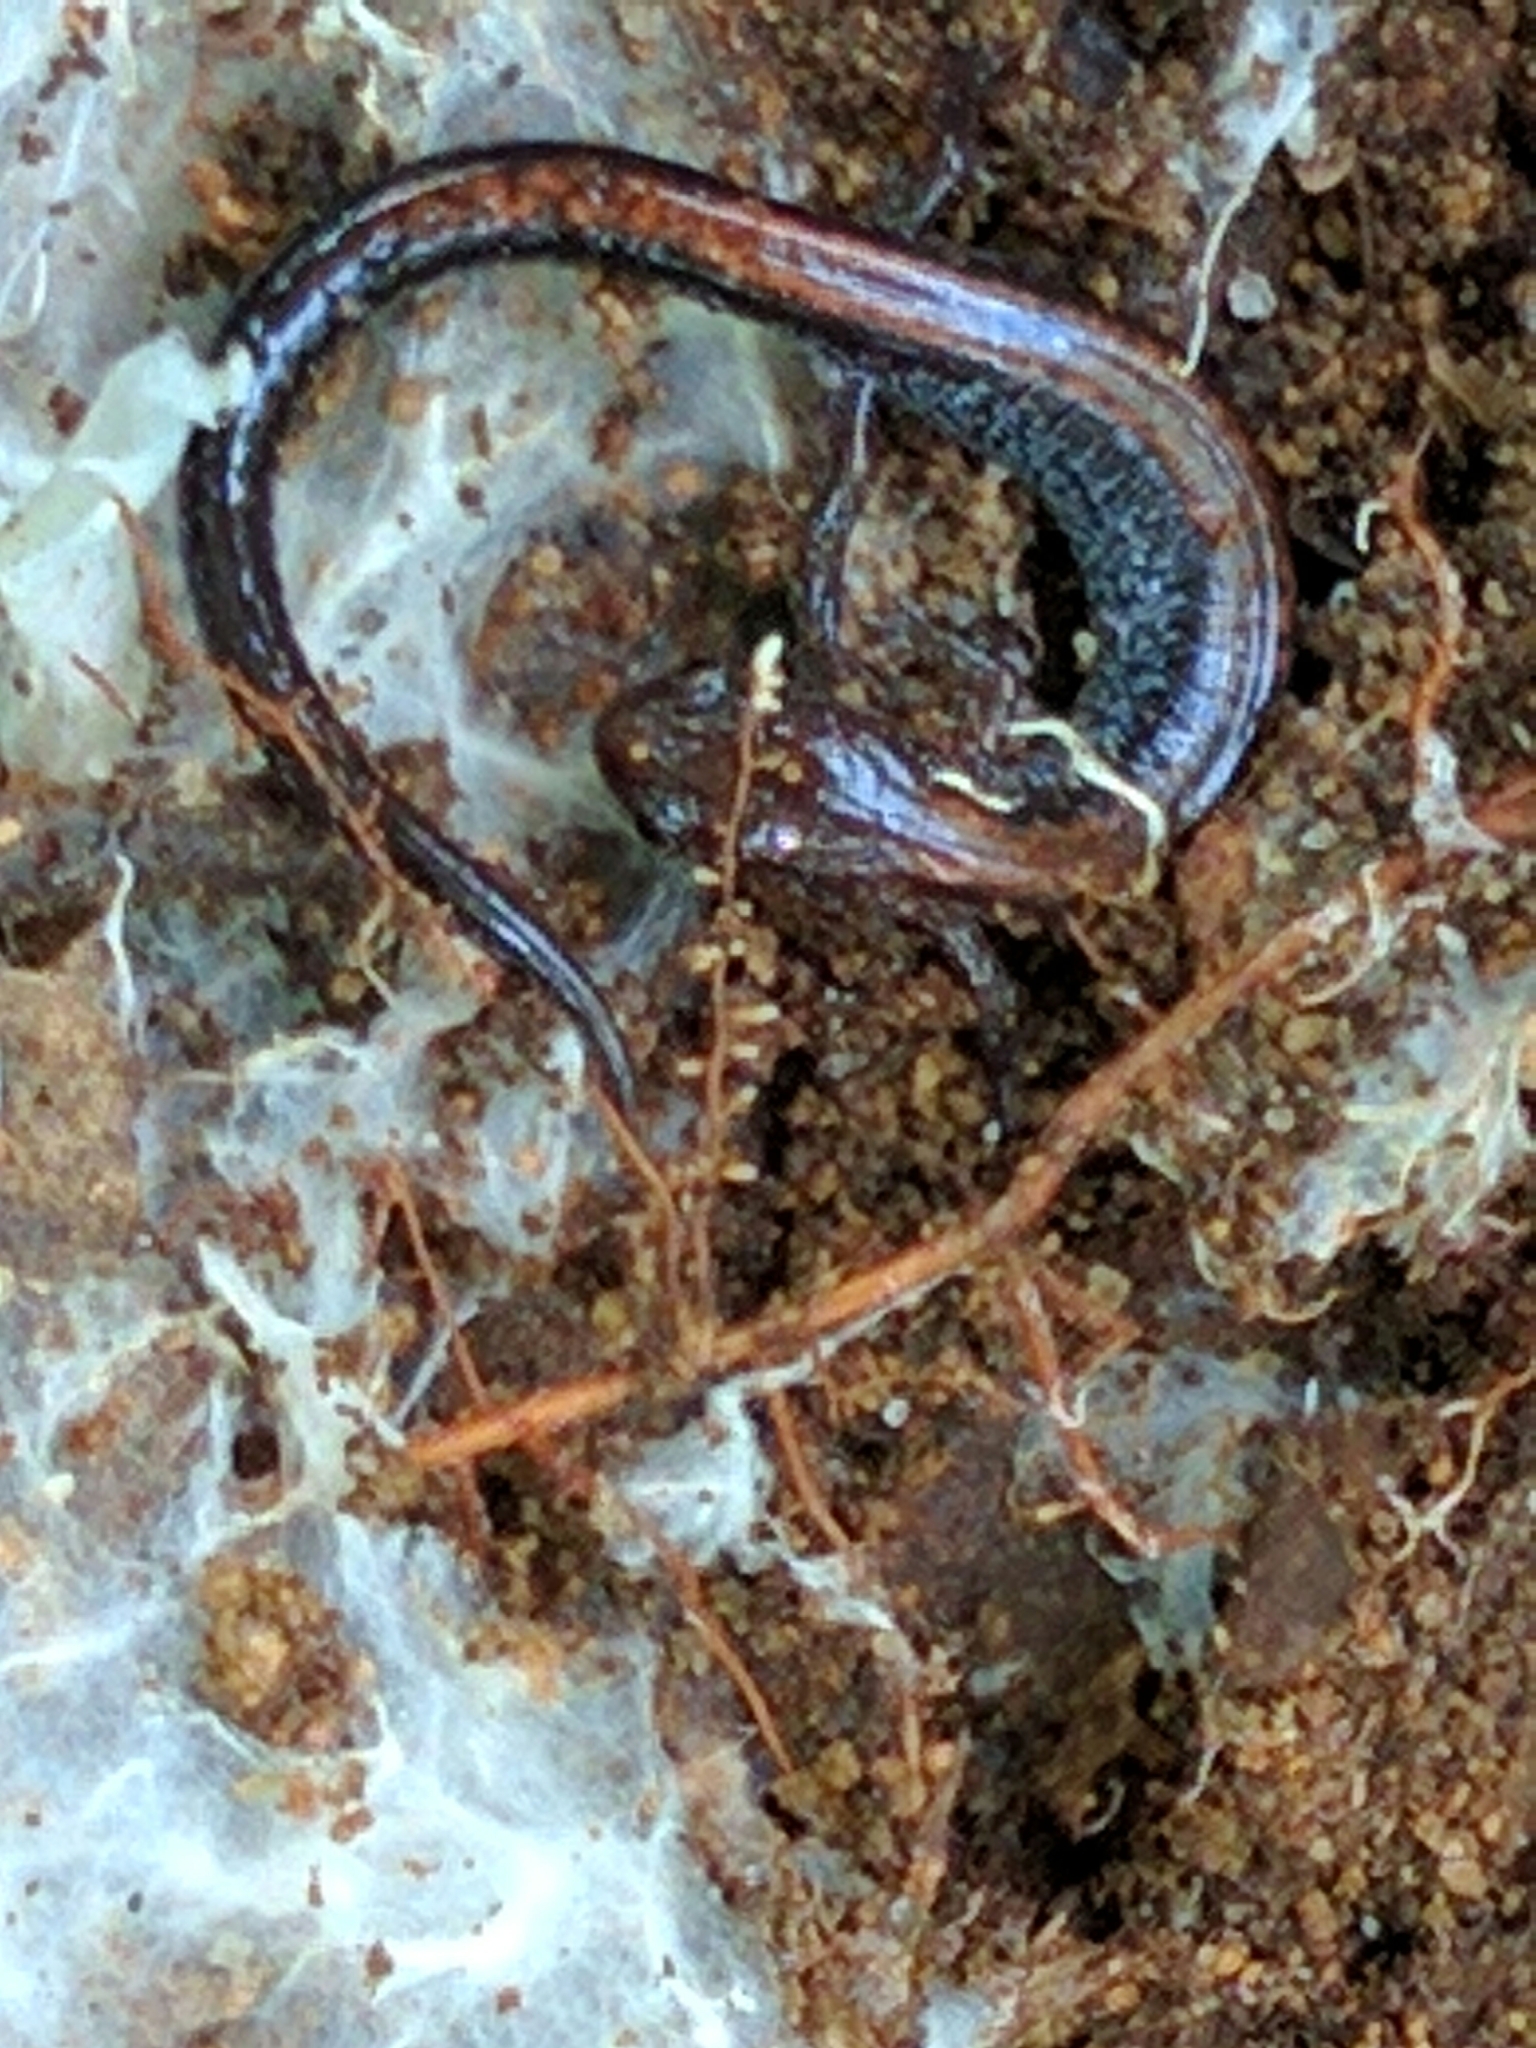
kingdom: Animalia
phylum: Chordata
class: Amphibia
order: Caudata
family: Plethodontidae
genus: Plethodon
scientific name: Plethodon cinereus
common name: Redback salamander
